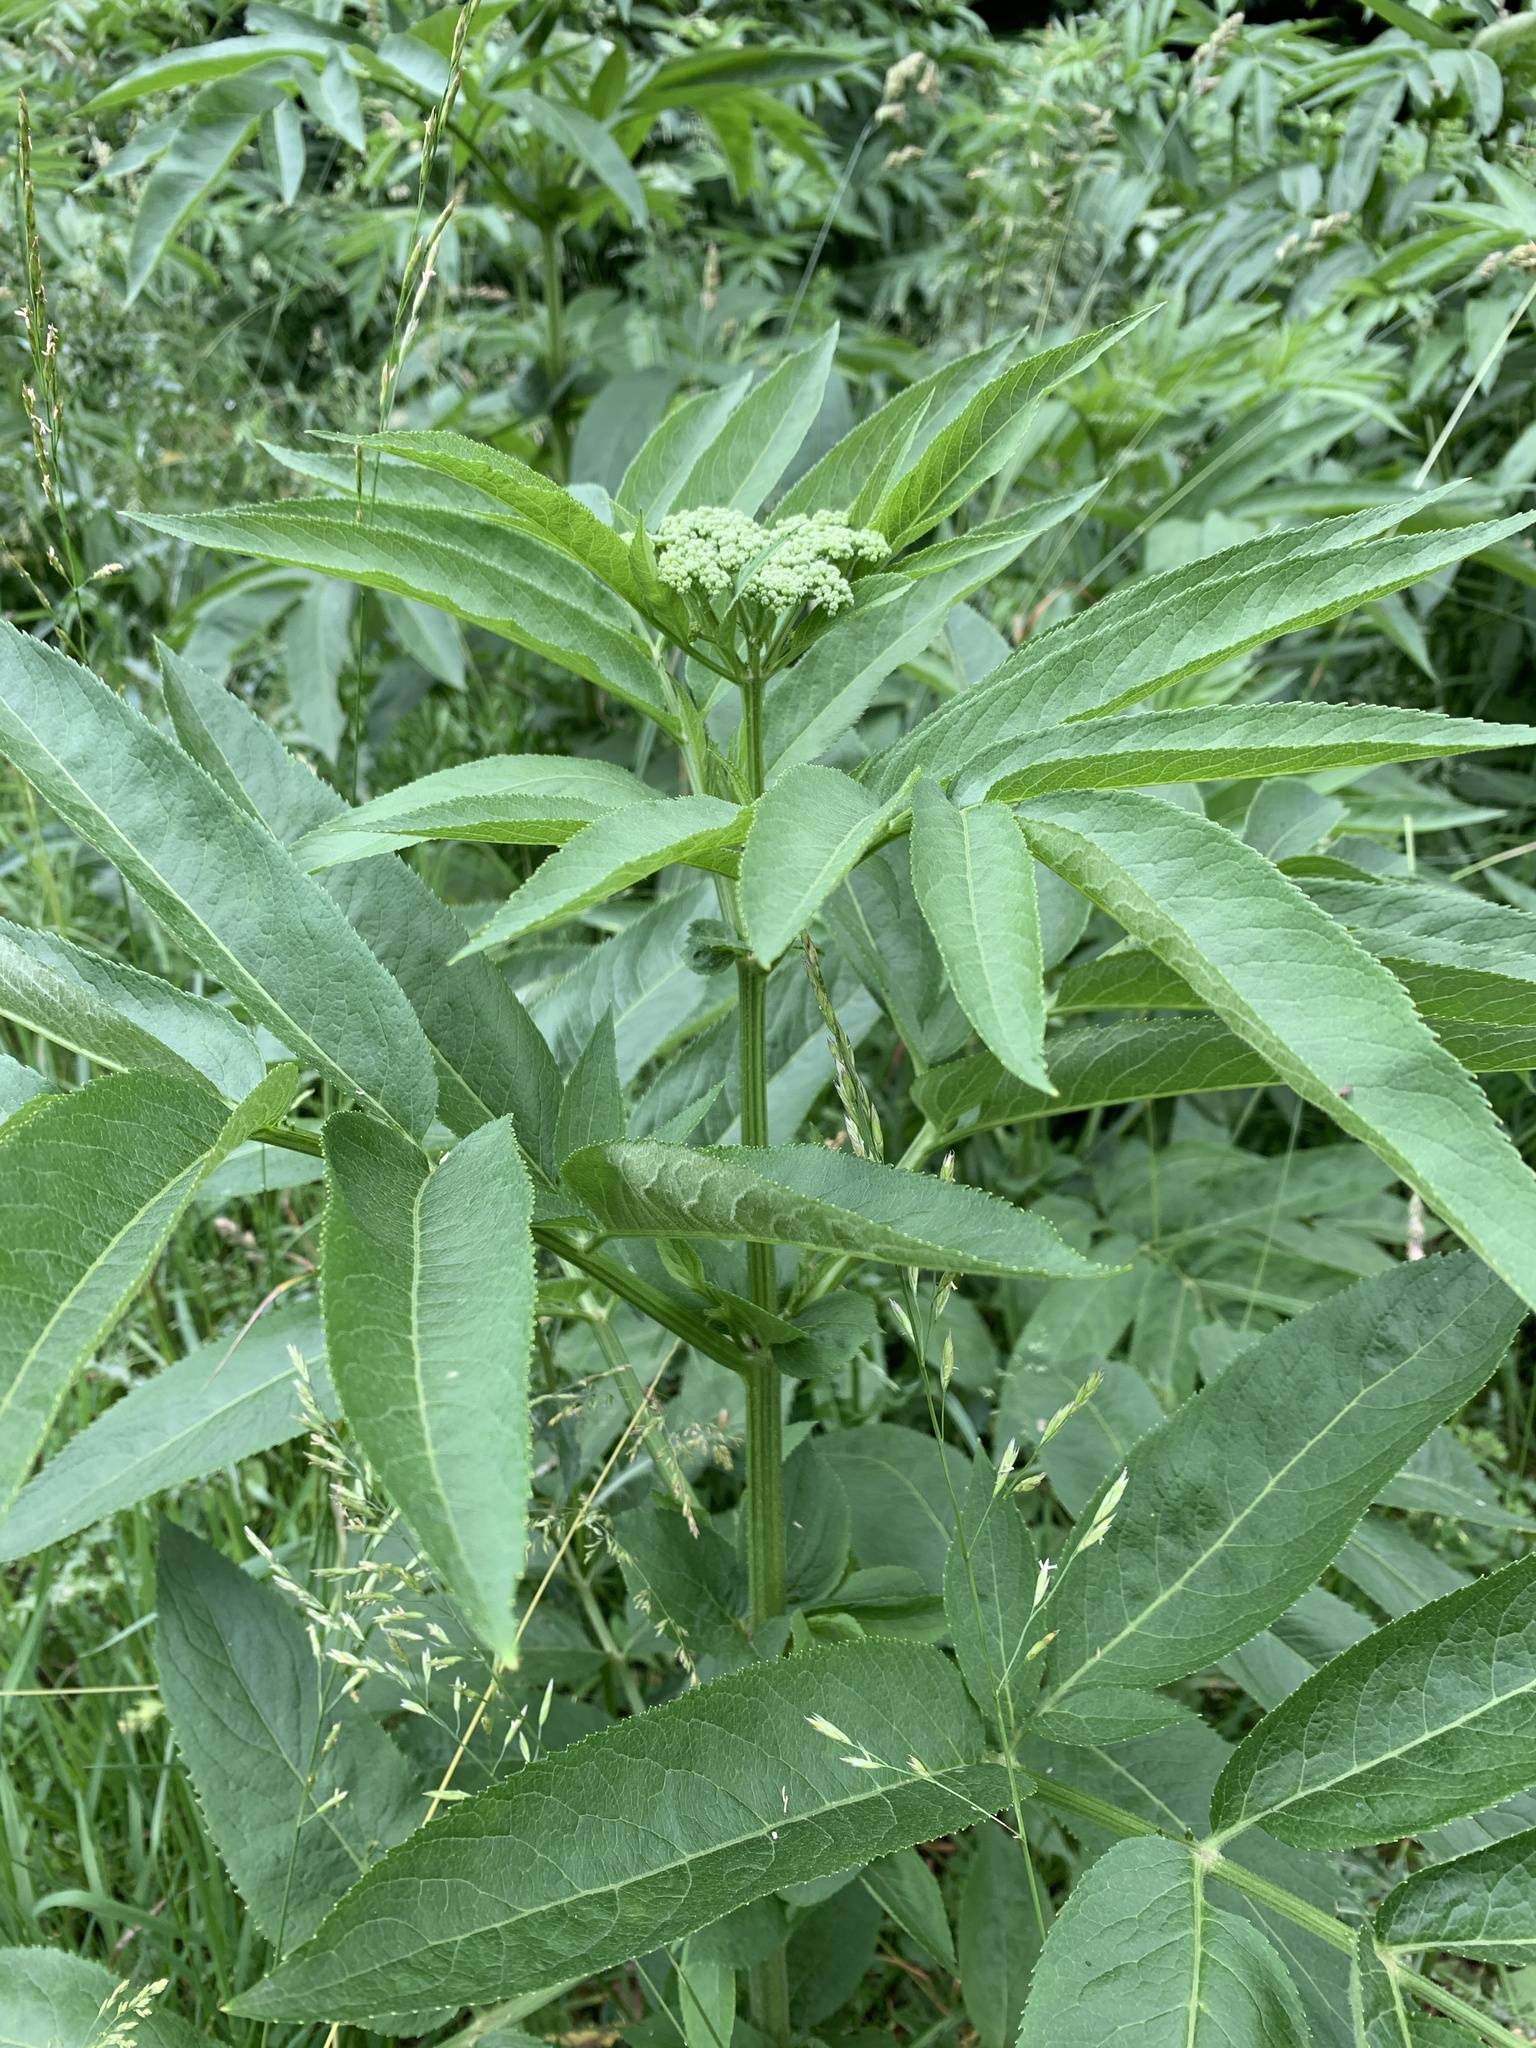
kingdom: Plantae
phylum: Tracheophyta
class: Magnoliopsida
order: Dipsacales
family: Viburnaceae
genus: Sambucus
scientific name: Sambucus ebulus
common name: Dwarf elder
